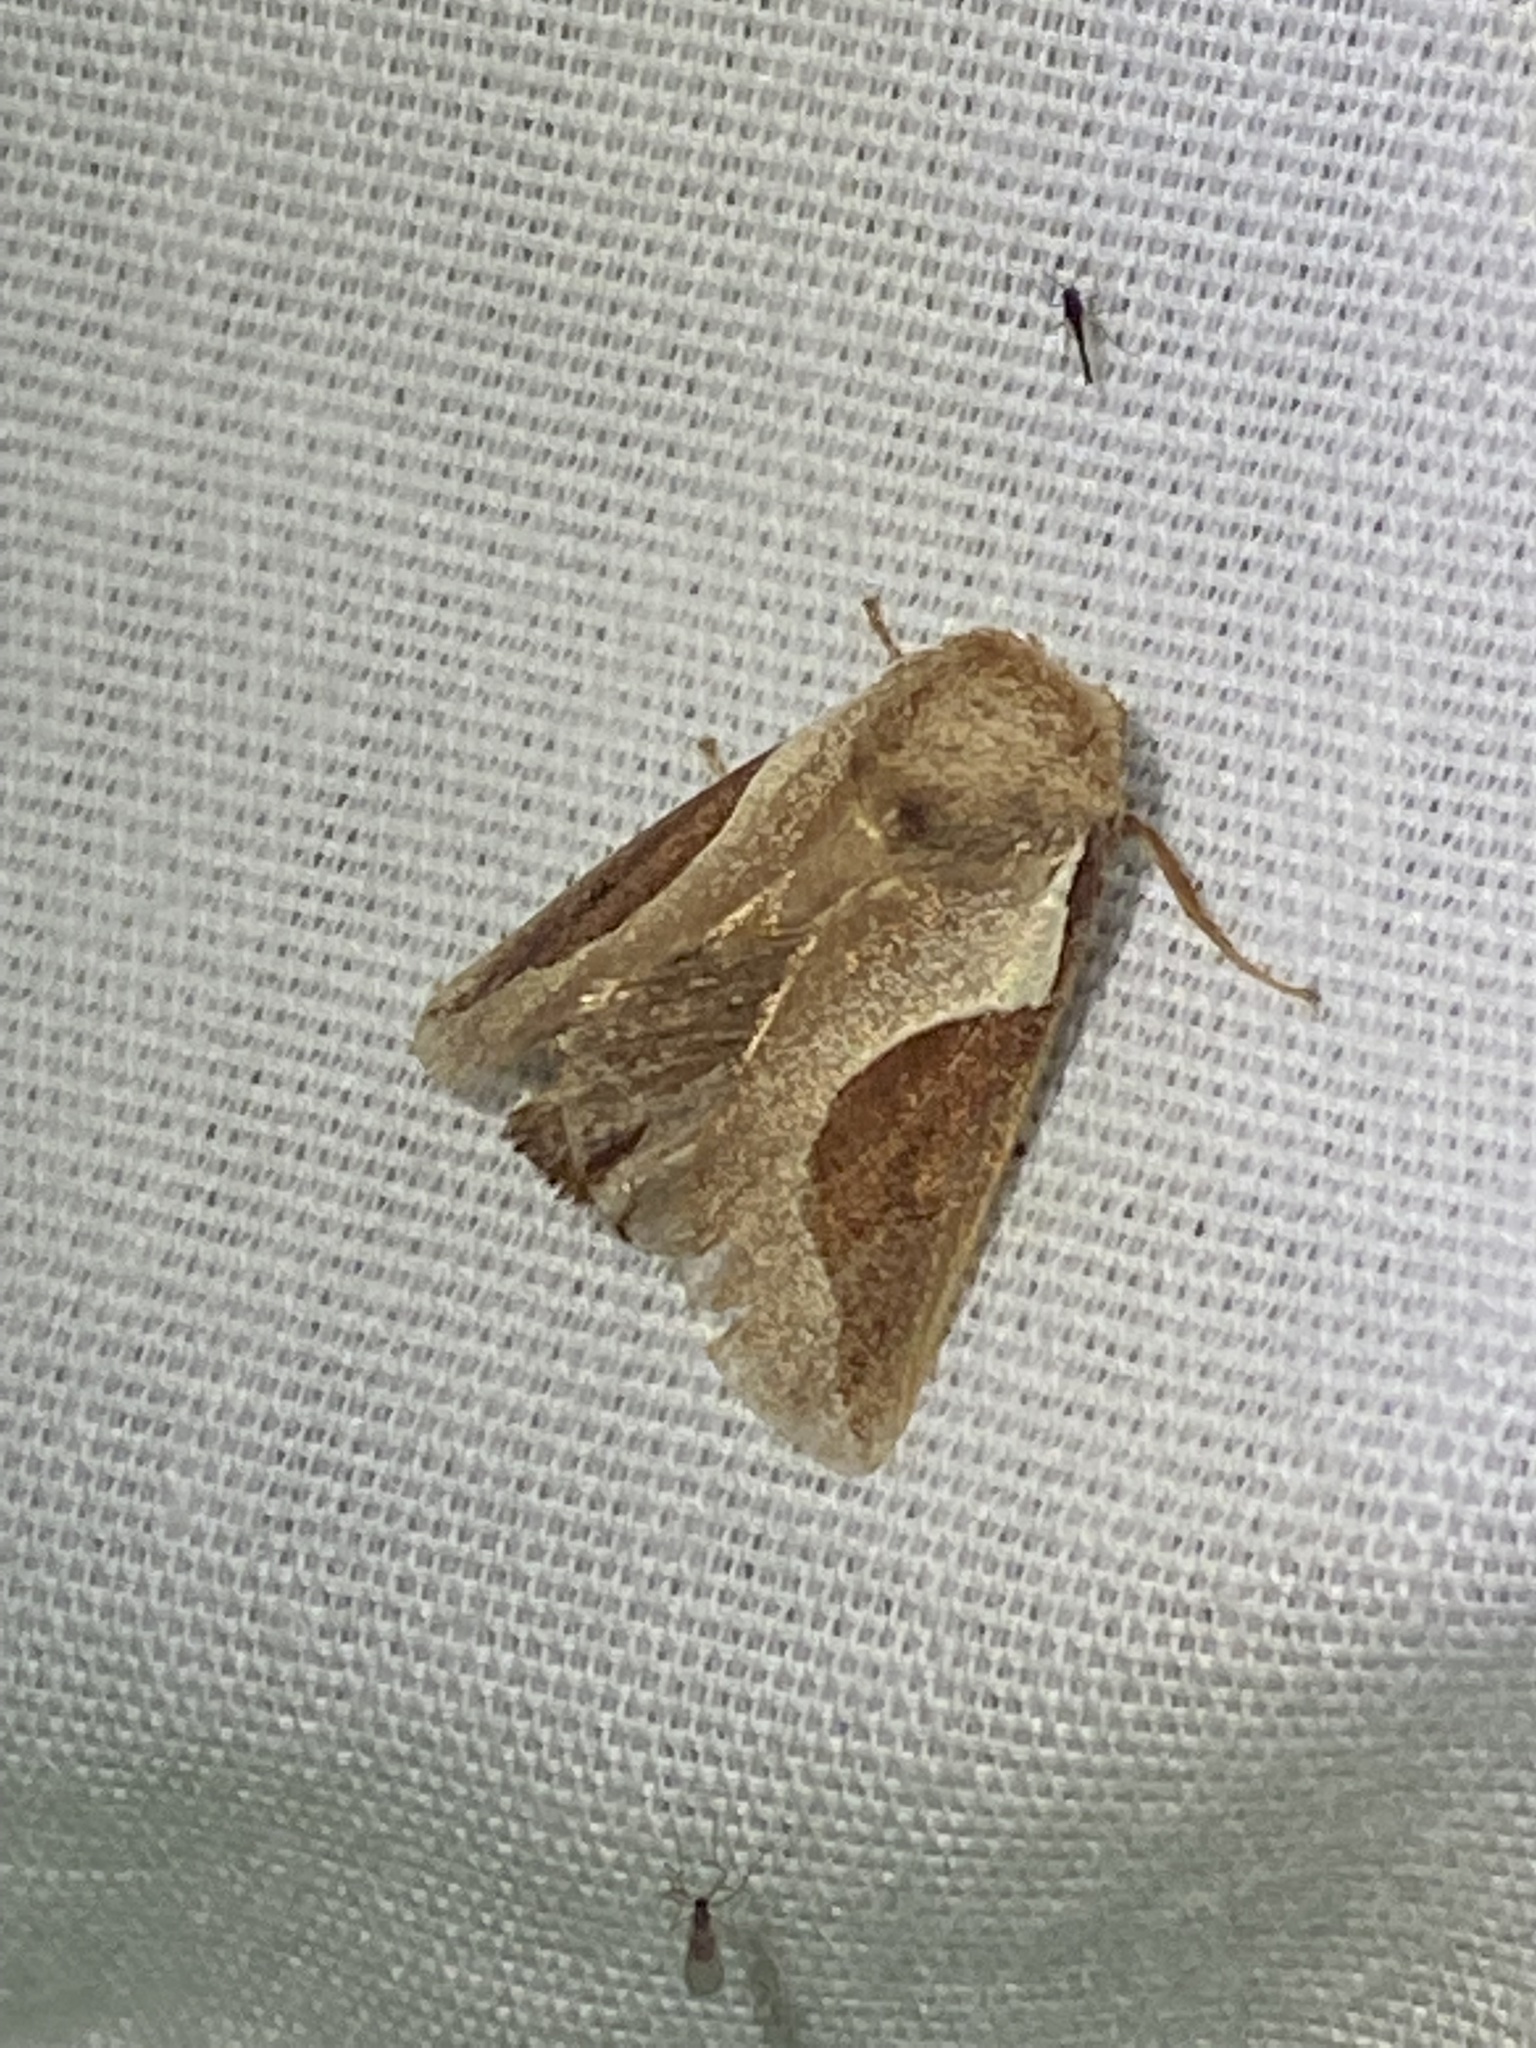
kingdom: Animalia
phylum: Arthropoda
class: Insecta
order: Lepidoptera
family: Limacodidae
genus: Prolimacodes
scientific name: Prolimacodes badia
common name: Skiff moth
